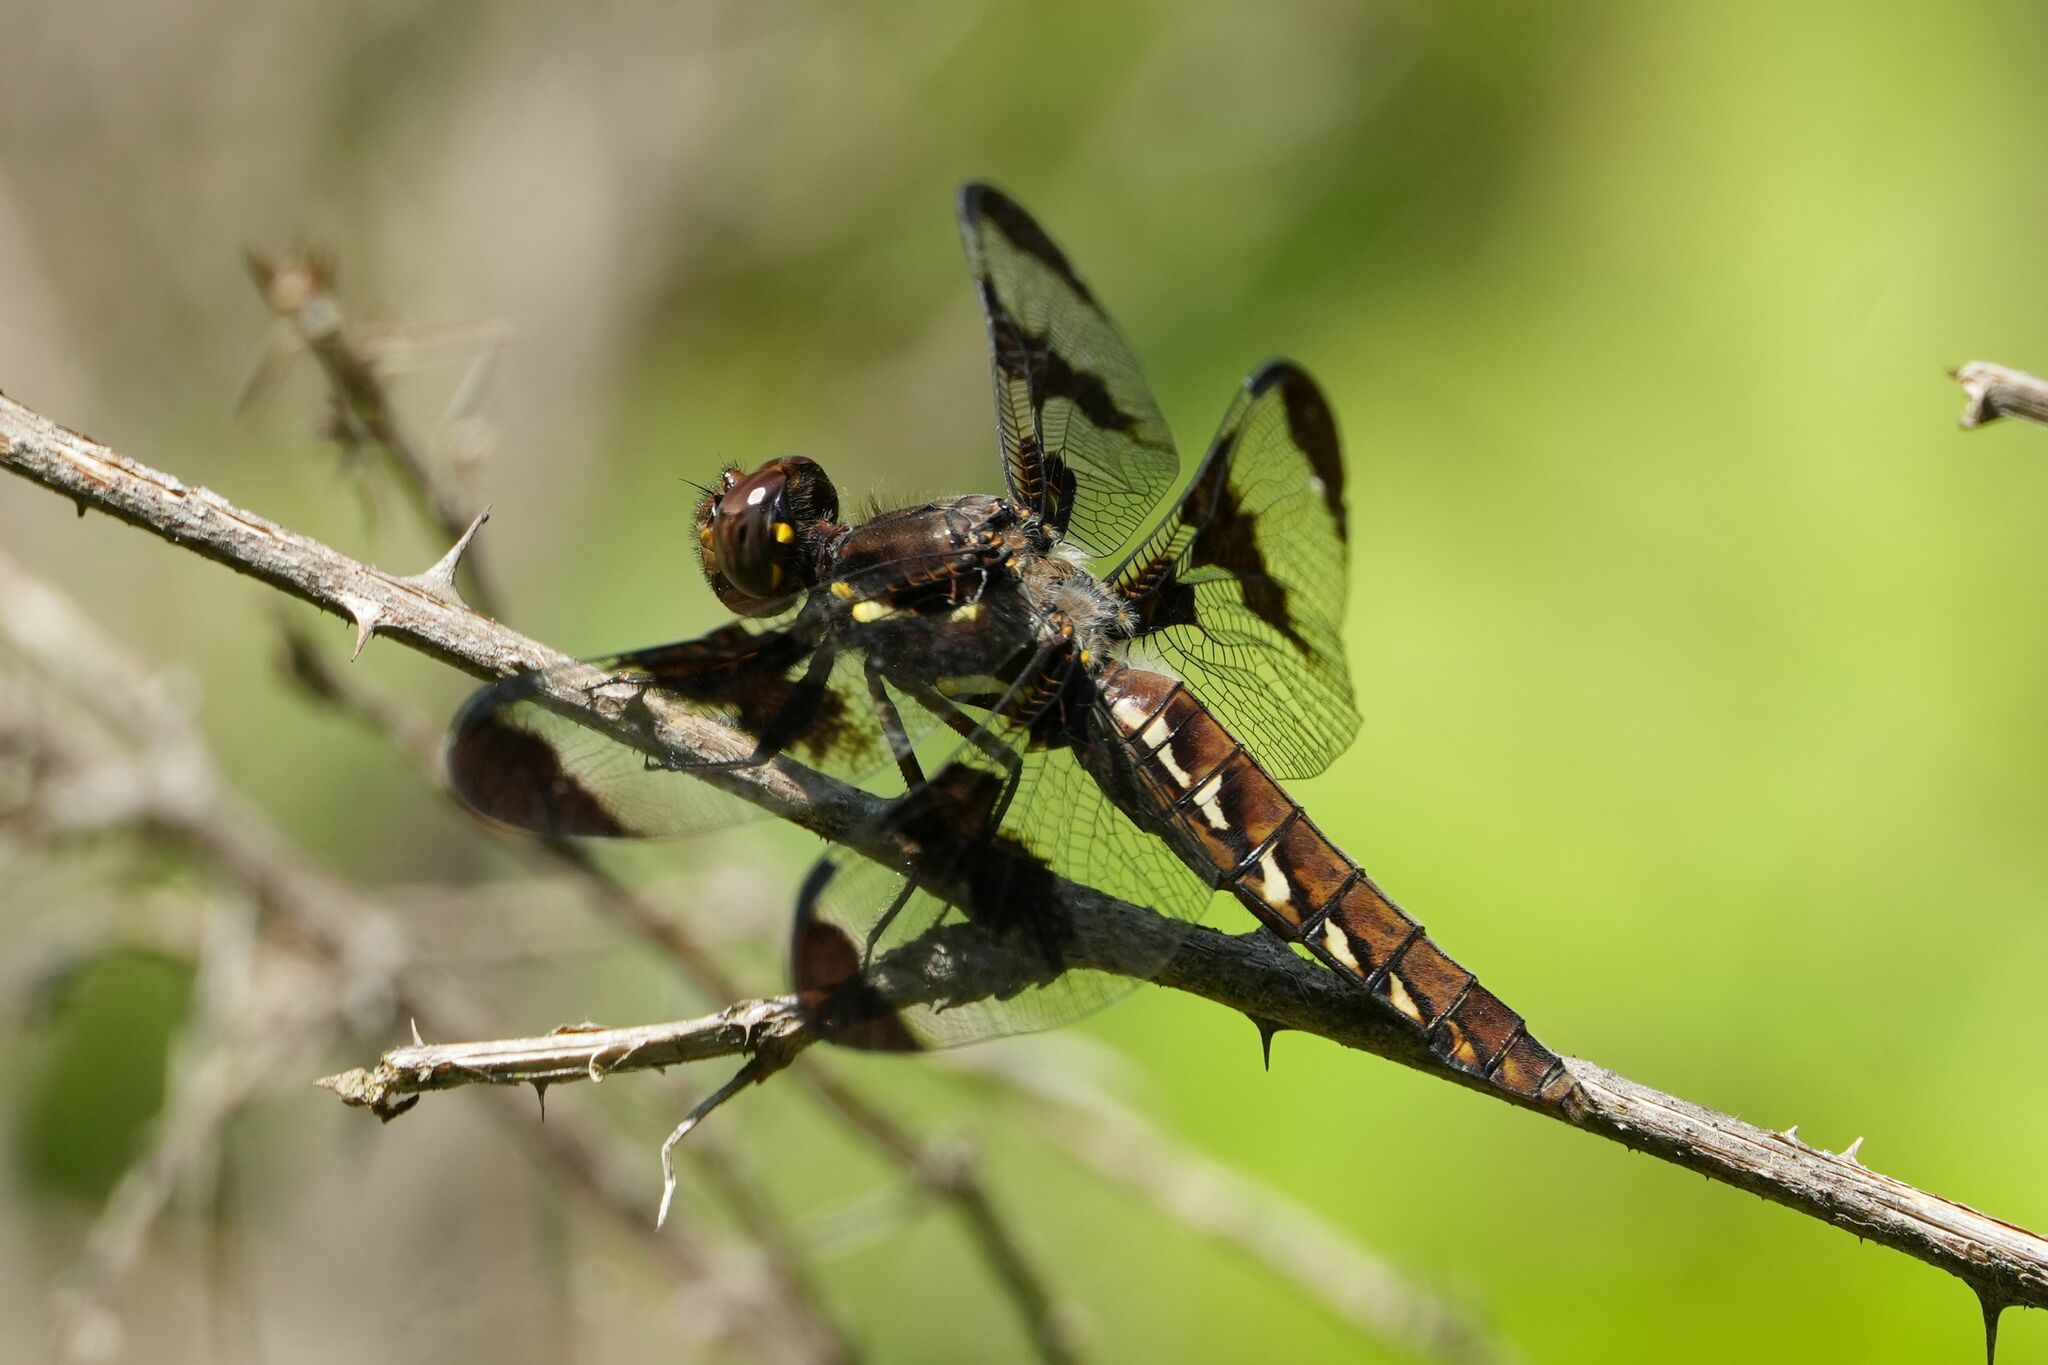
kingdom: Animalia
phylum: Arthropoda
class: Insecta
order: Odonata
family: Libellulidae
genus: Plathemis
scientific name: Plathemis lydia
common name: Common whitetail
